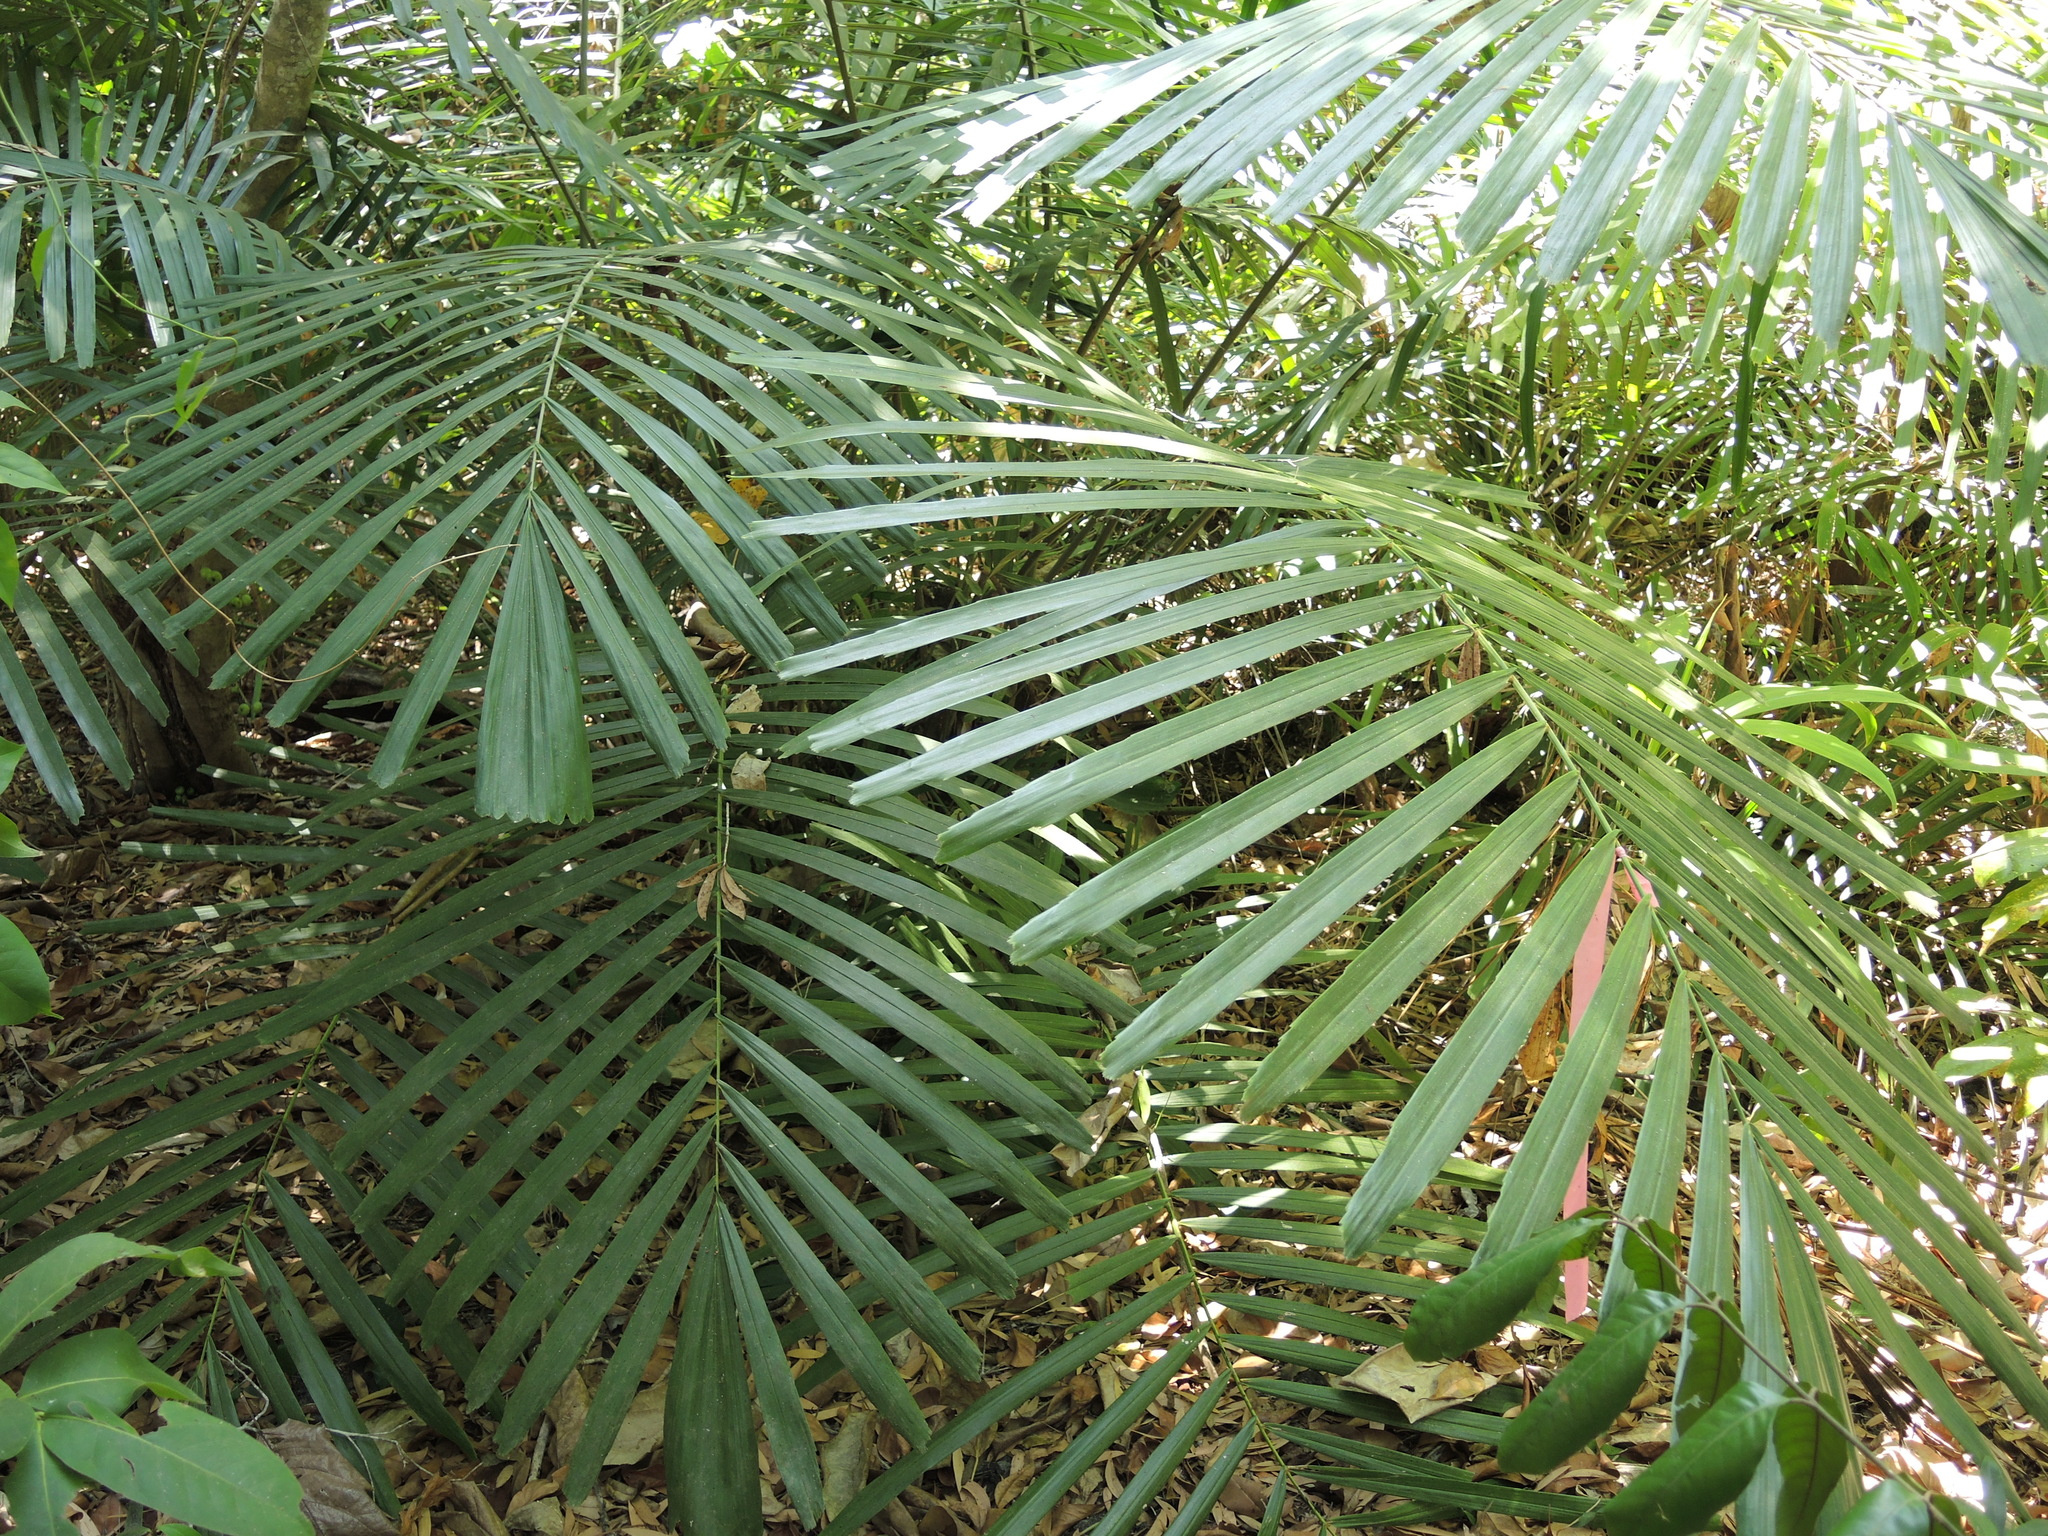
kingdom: Plantae
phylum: Tracheophyta
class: Liliopsida
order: Arecales
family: Arecaceae
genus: Arenga
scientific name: Arenga microcarpa
